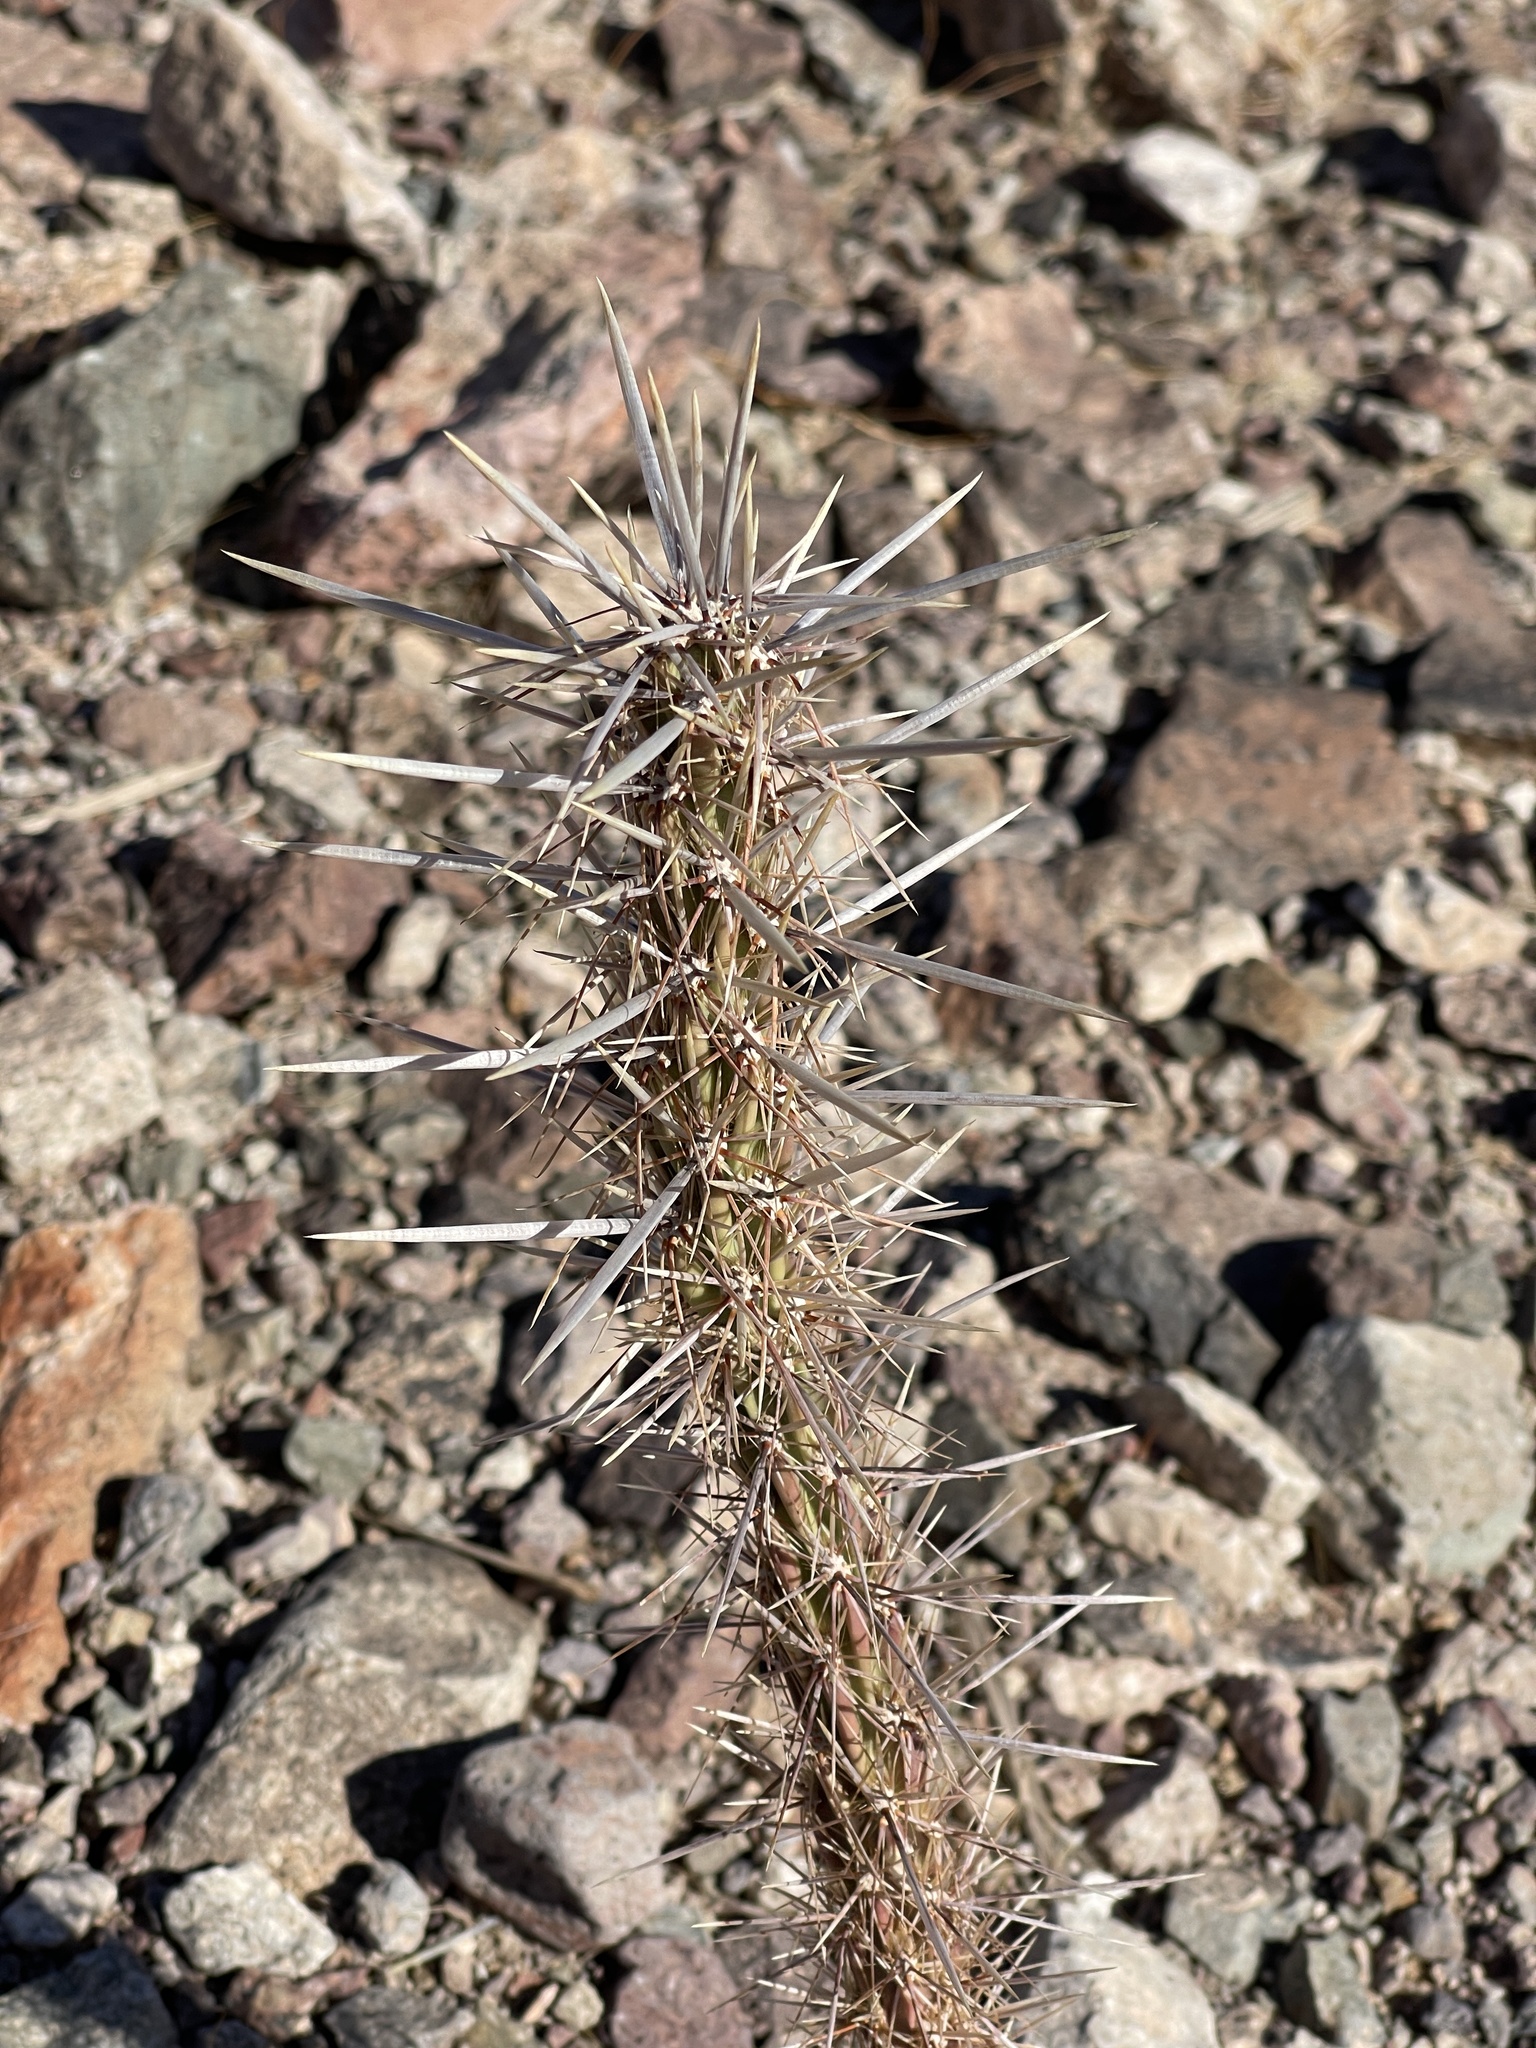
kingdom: Plantae
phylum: Tracheophyta
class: Magnoliopsida
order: Caryophyllales
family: Cactaceae
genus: Cylindropuntia
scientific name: Cylindropuntia acanthocarpa
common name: Buckhorn cholla
